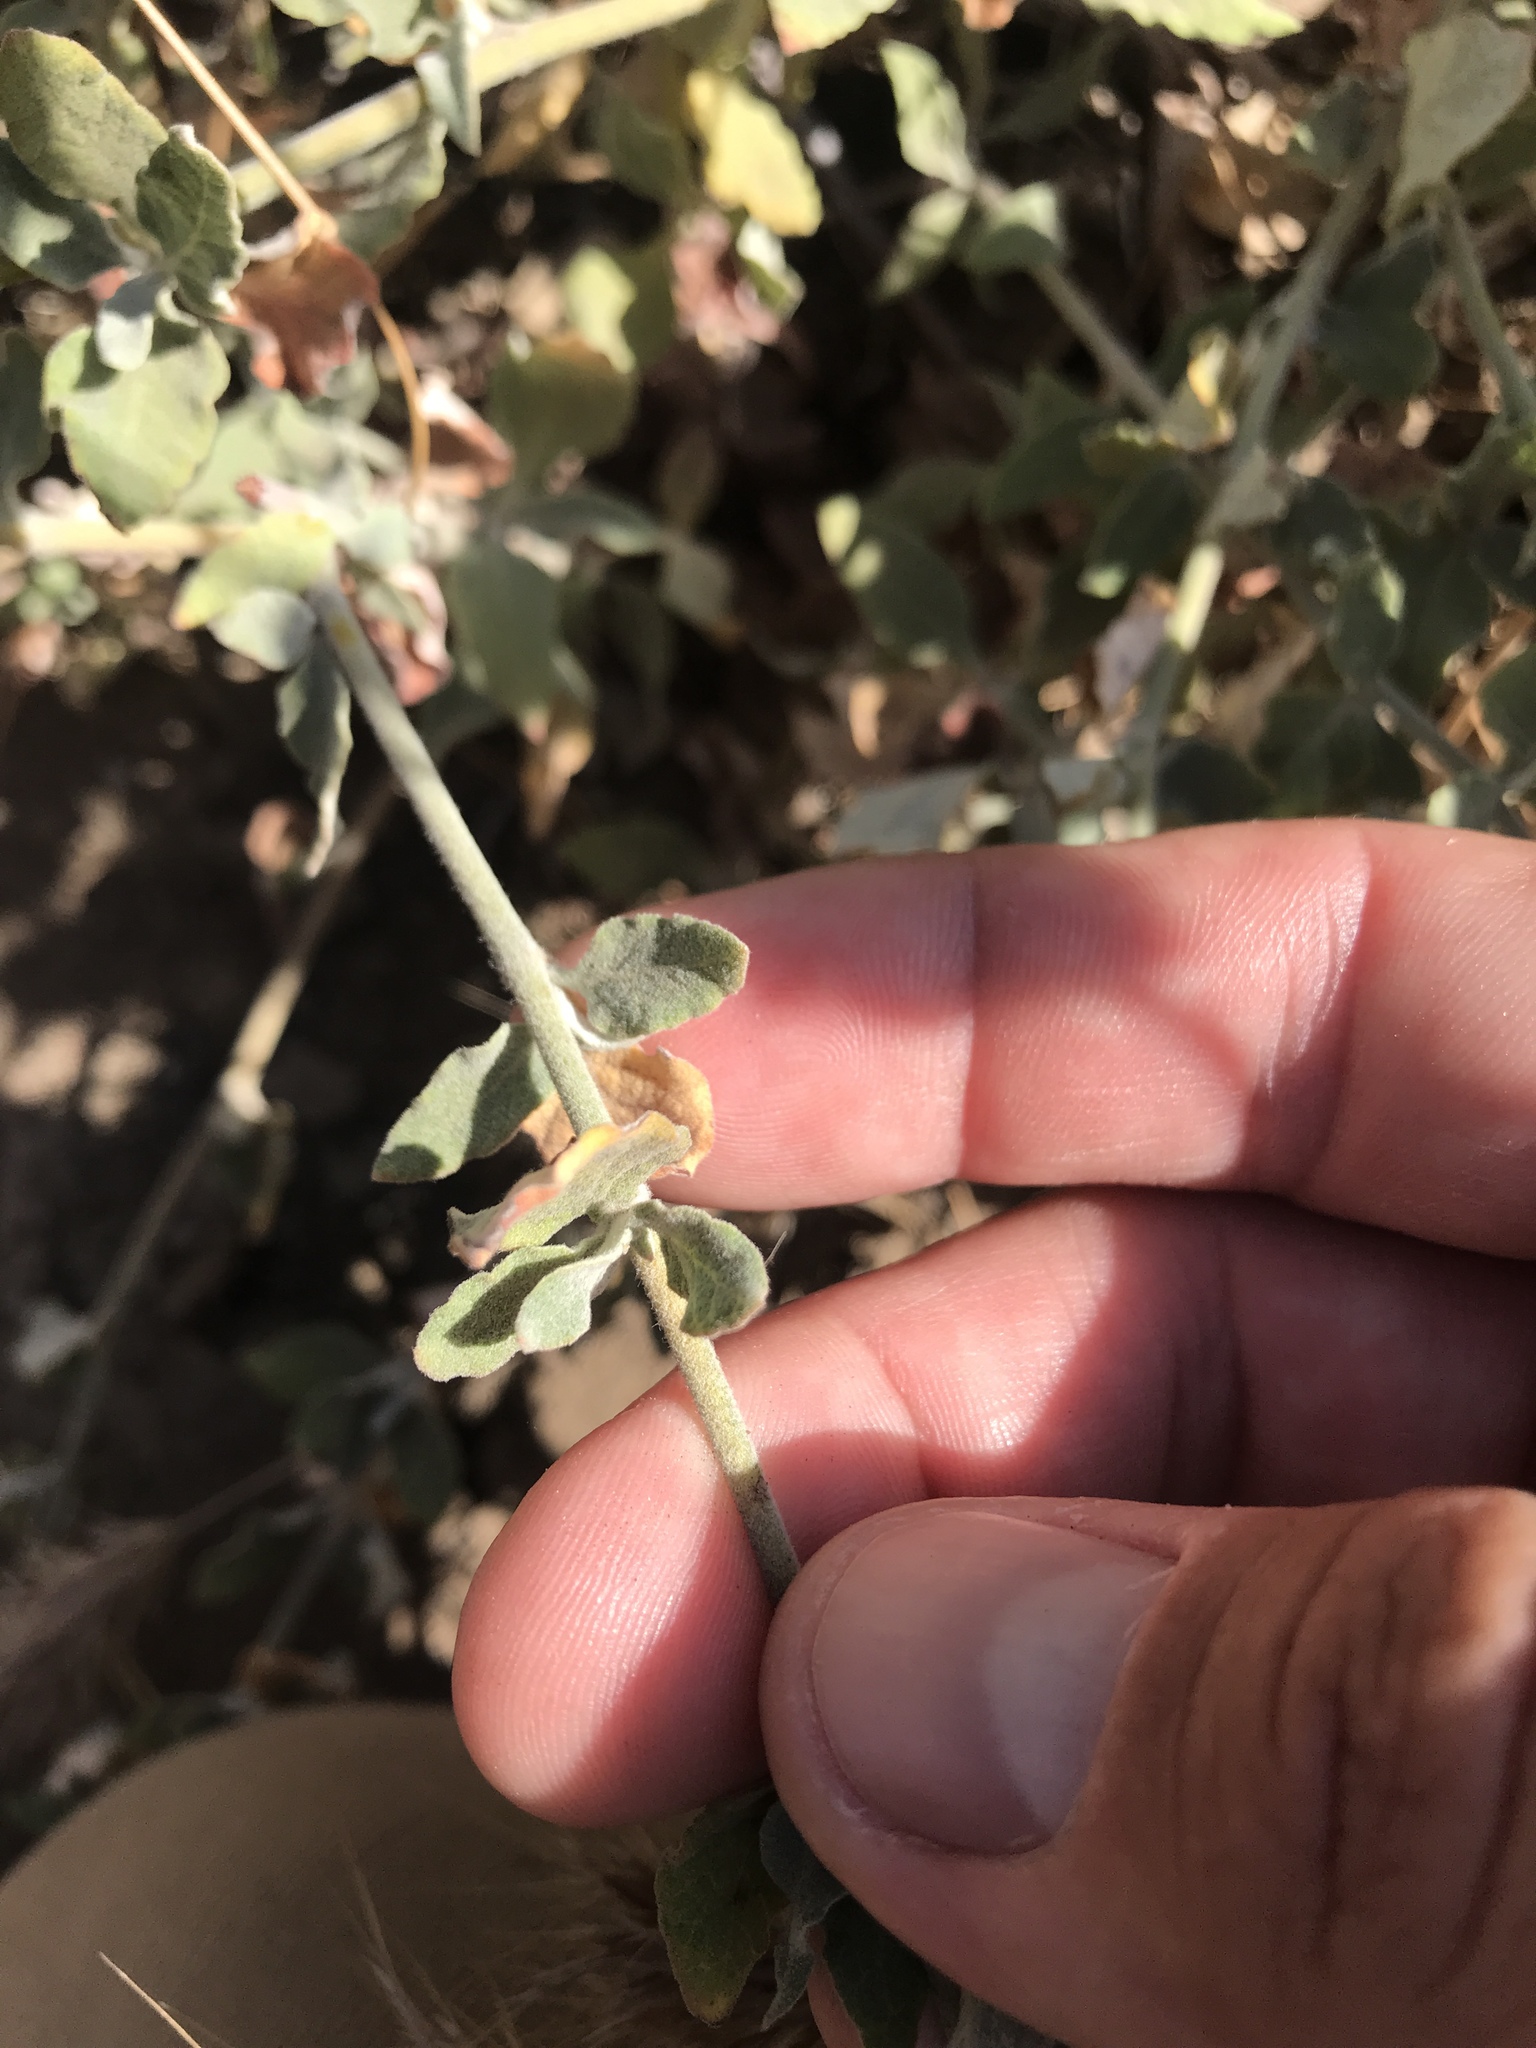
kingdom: Plantae
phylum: Tracheophyta
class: Magnoliopsida
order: Caryophyllales
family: Polygonaceae
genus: Eriogonum
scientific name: Eriogonum cinereum
